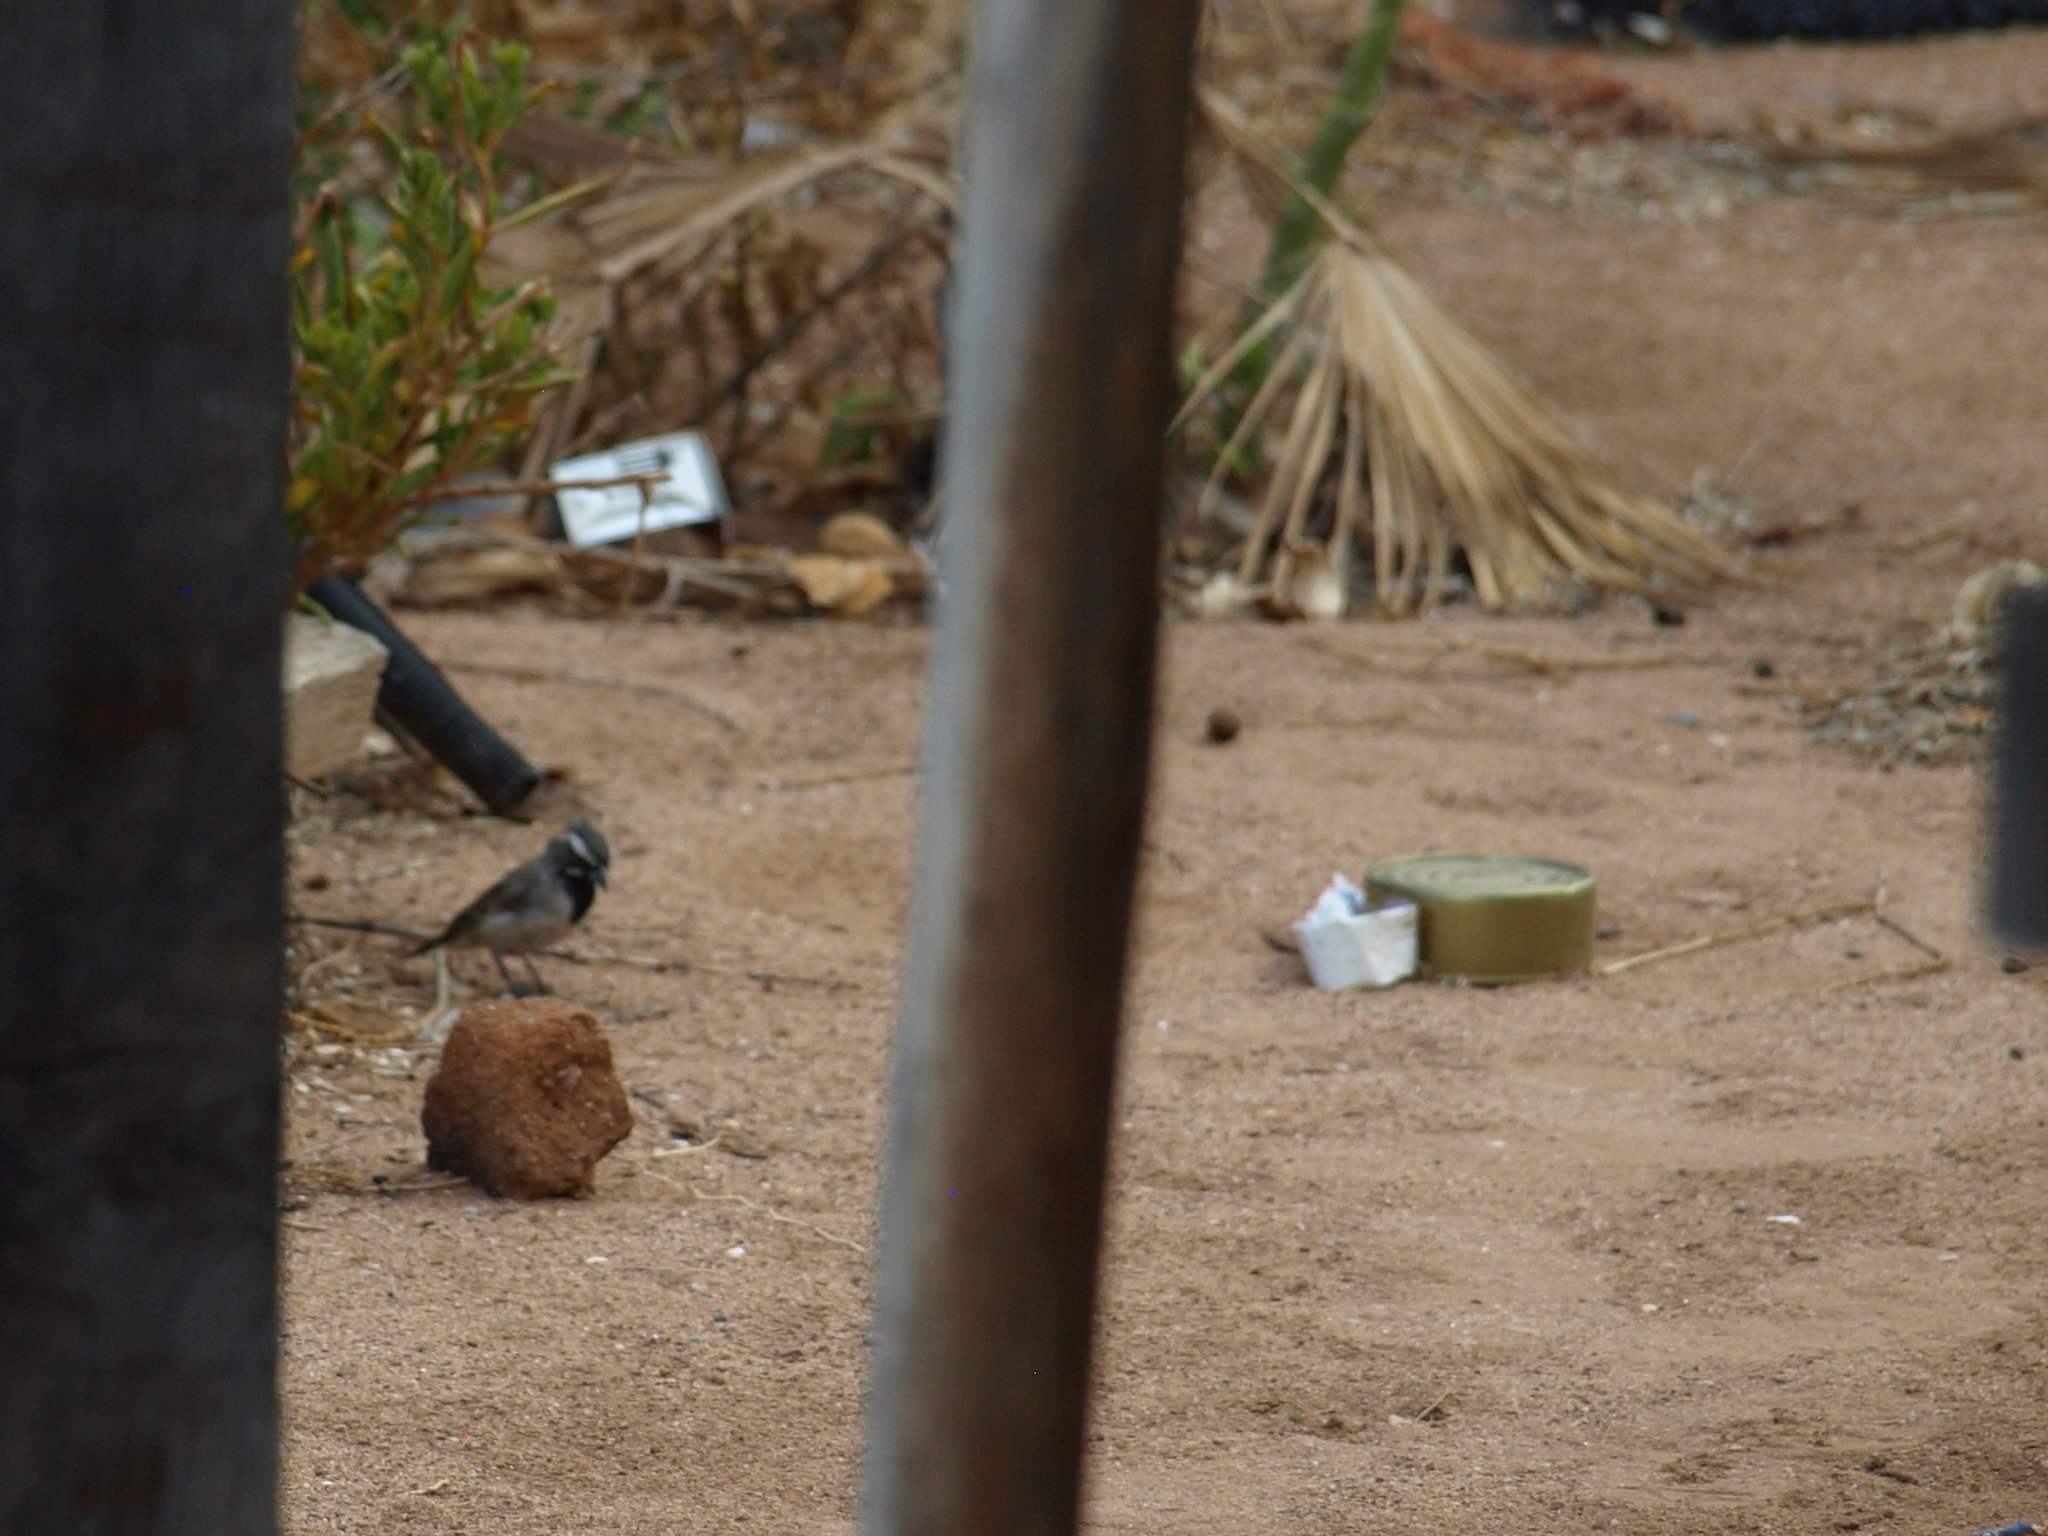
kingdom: Animalia
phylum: Chordata
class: Aves
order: Passeriformes
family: Passerellidae
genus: Amphispiza
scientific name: Amphispiza bilineata
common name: Black-throated sparrow
